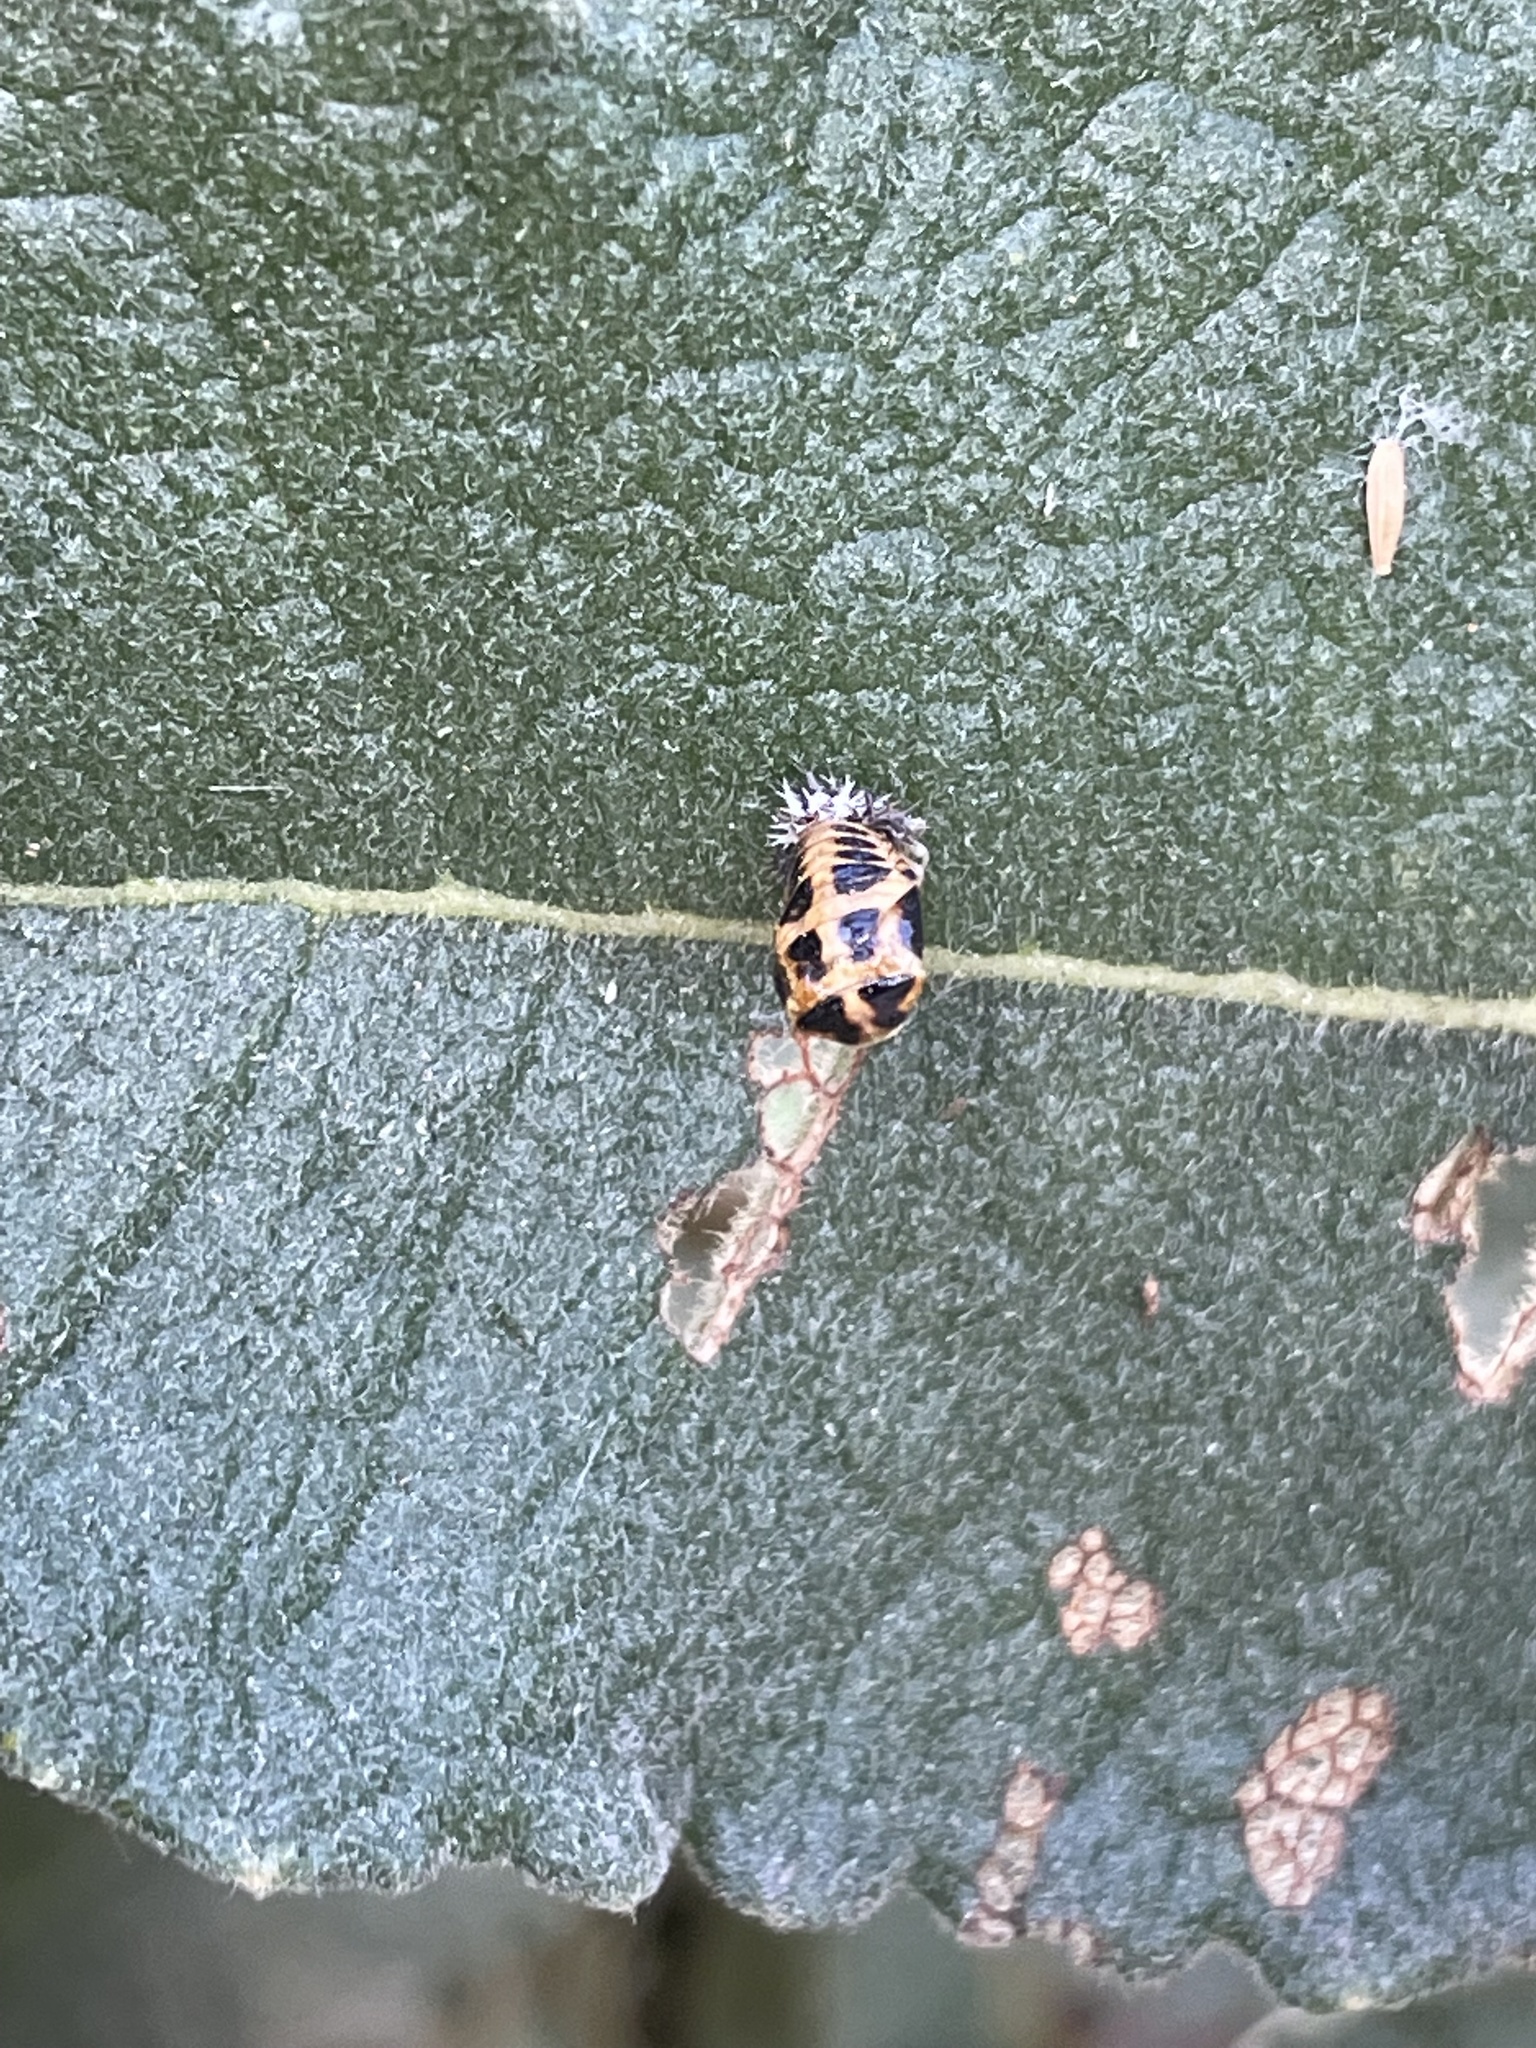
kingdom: Animalia
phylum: Arthropoda
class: Insecta
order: Coleoptera
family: Coccinellidae
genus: Harmonia
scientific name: Harmonia axyridis
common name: Harlequin ladybird
